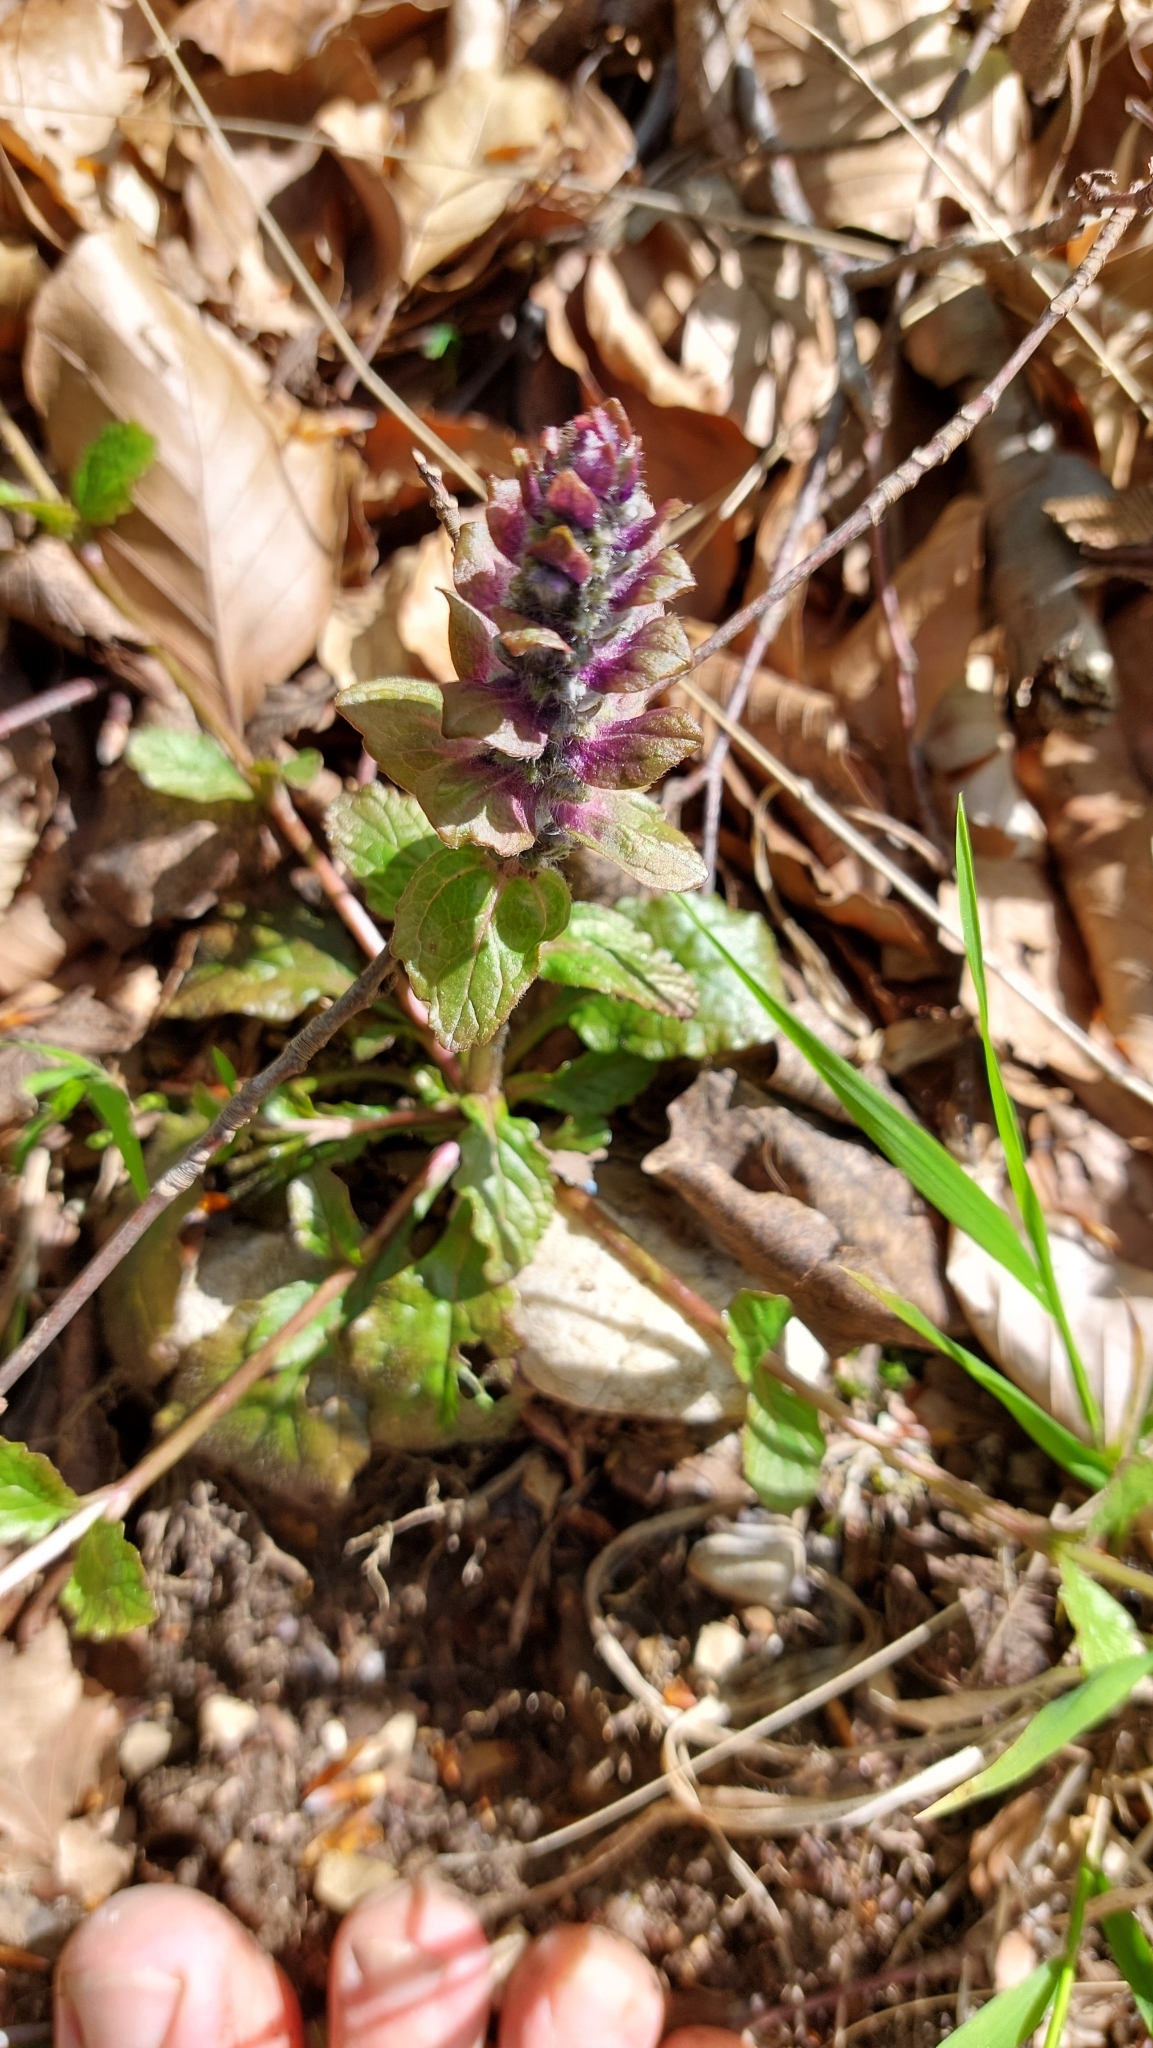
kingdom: Plantae
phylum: Tracheophyta
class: Magnoliopsida
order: Lamiales
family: Lamiaceae
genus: Ajuga
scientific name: Ajuga reptans
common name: Bugle
